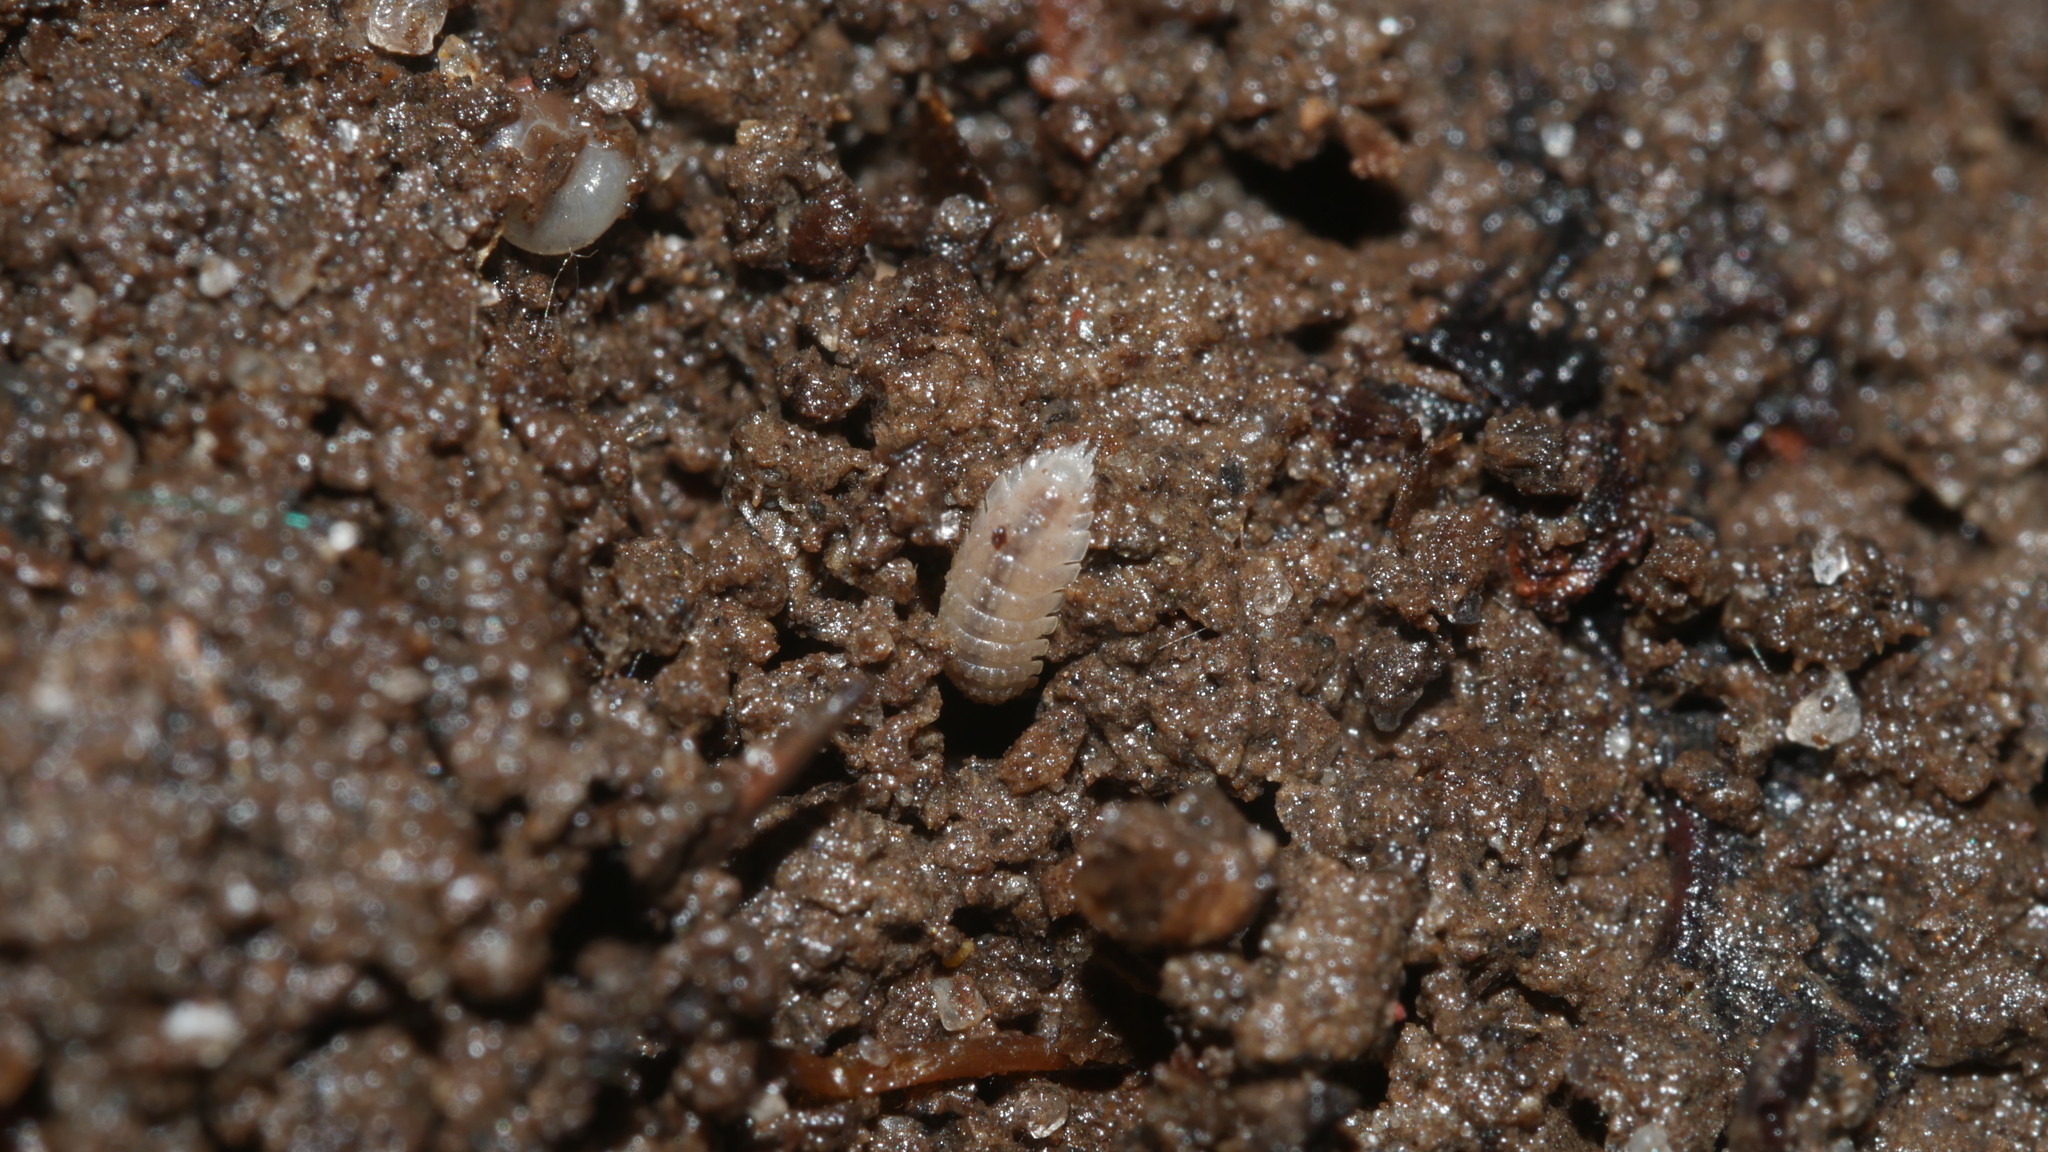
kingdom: Animalia
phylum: Arthropoda
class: Malacostraca
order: Isopoda
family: Trichoniscidae
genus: Haplophthalmus
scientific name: Haplophthalmus danicus
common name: Pillbug
